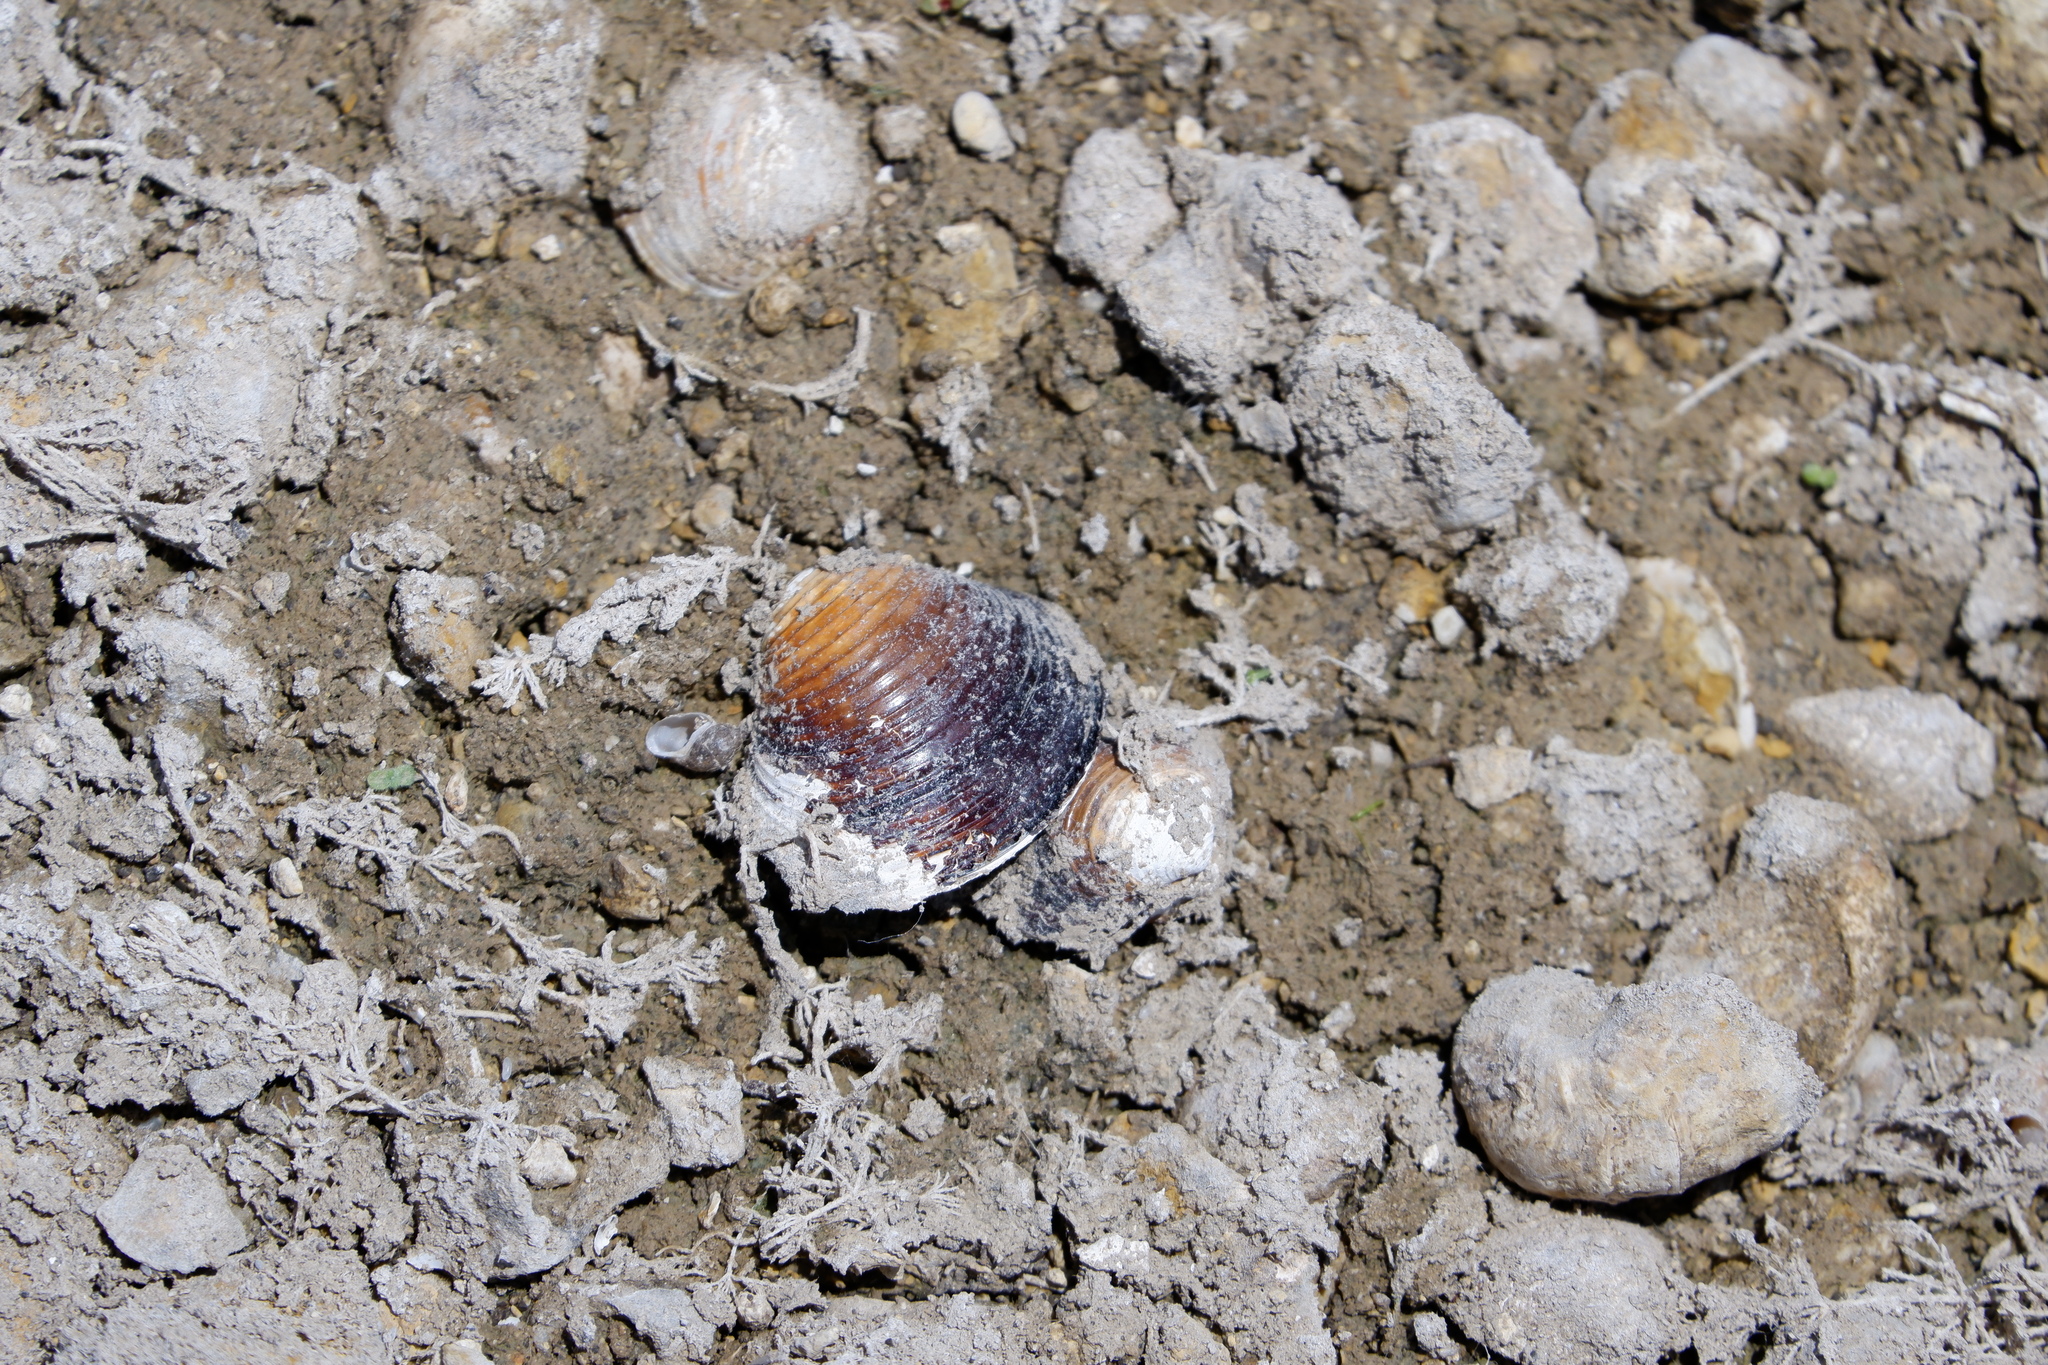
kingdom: Animalia
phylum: Mollusca
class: Bivalvia
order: Venerida
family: Cyrenidae
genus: Corbicula
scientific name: Corbicula fluminea
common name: Asian clam
